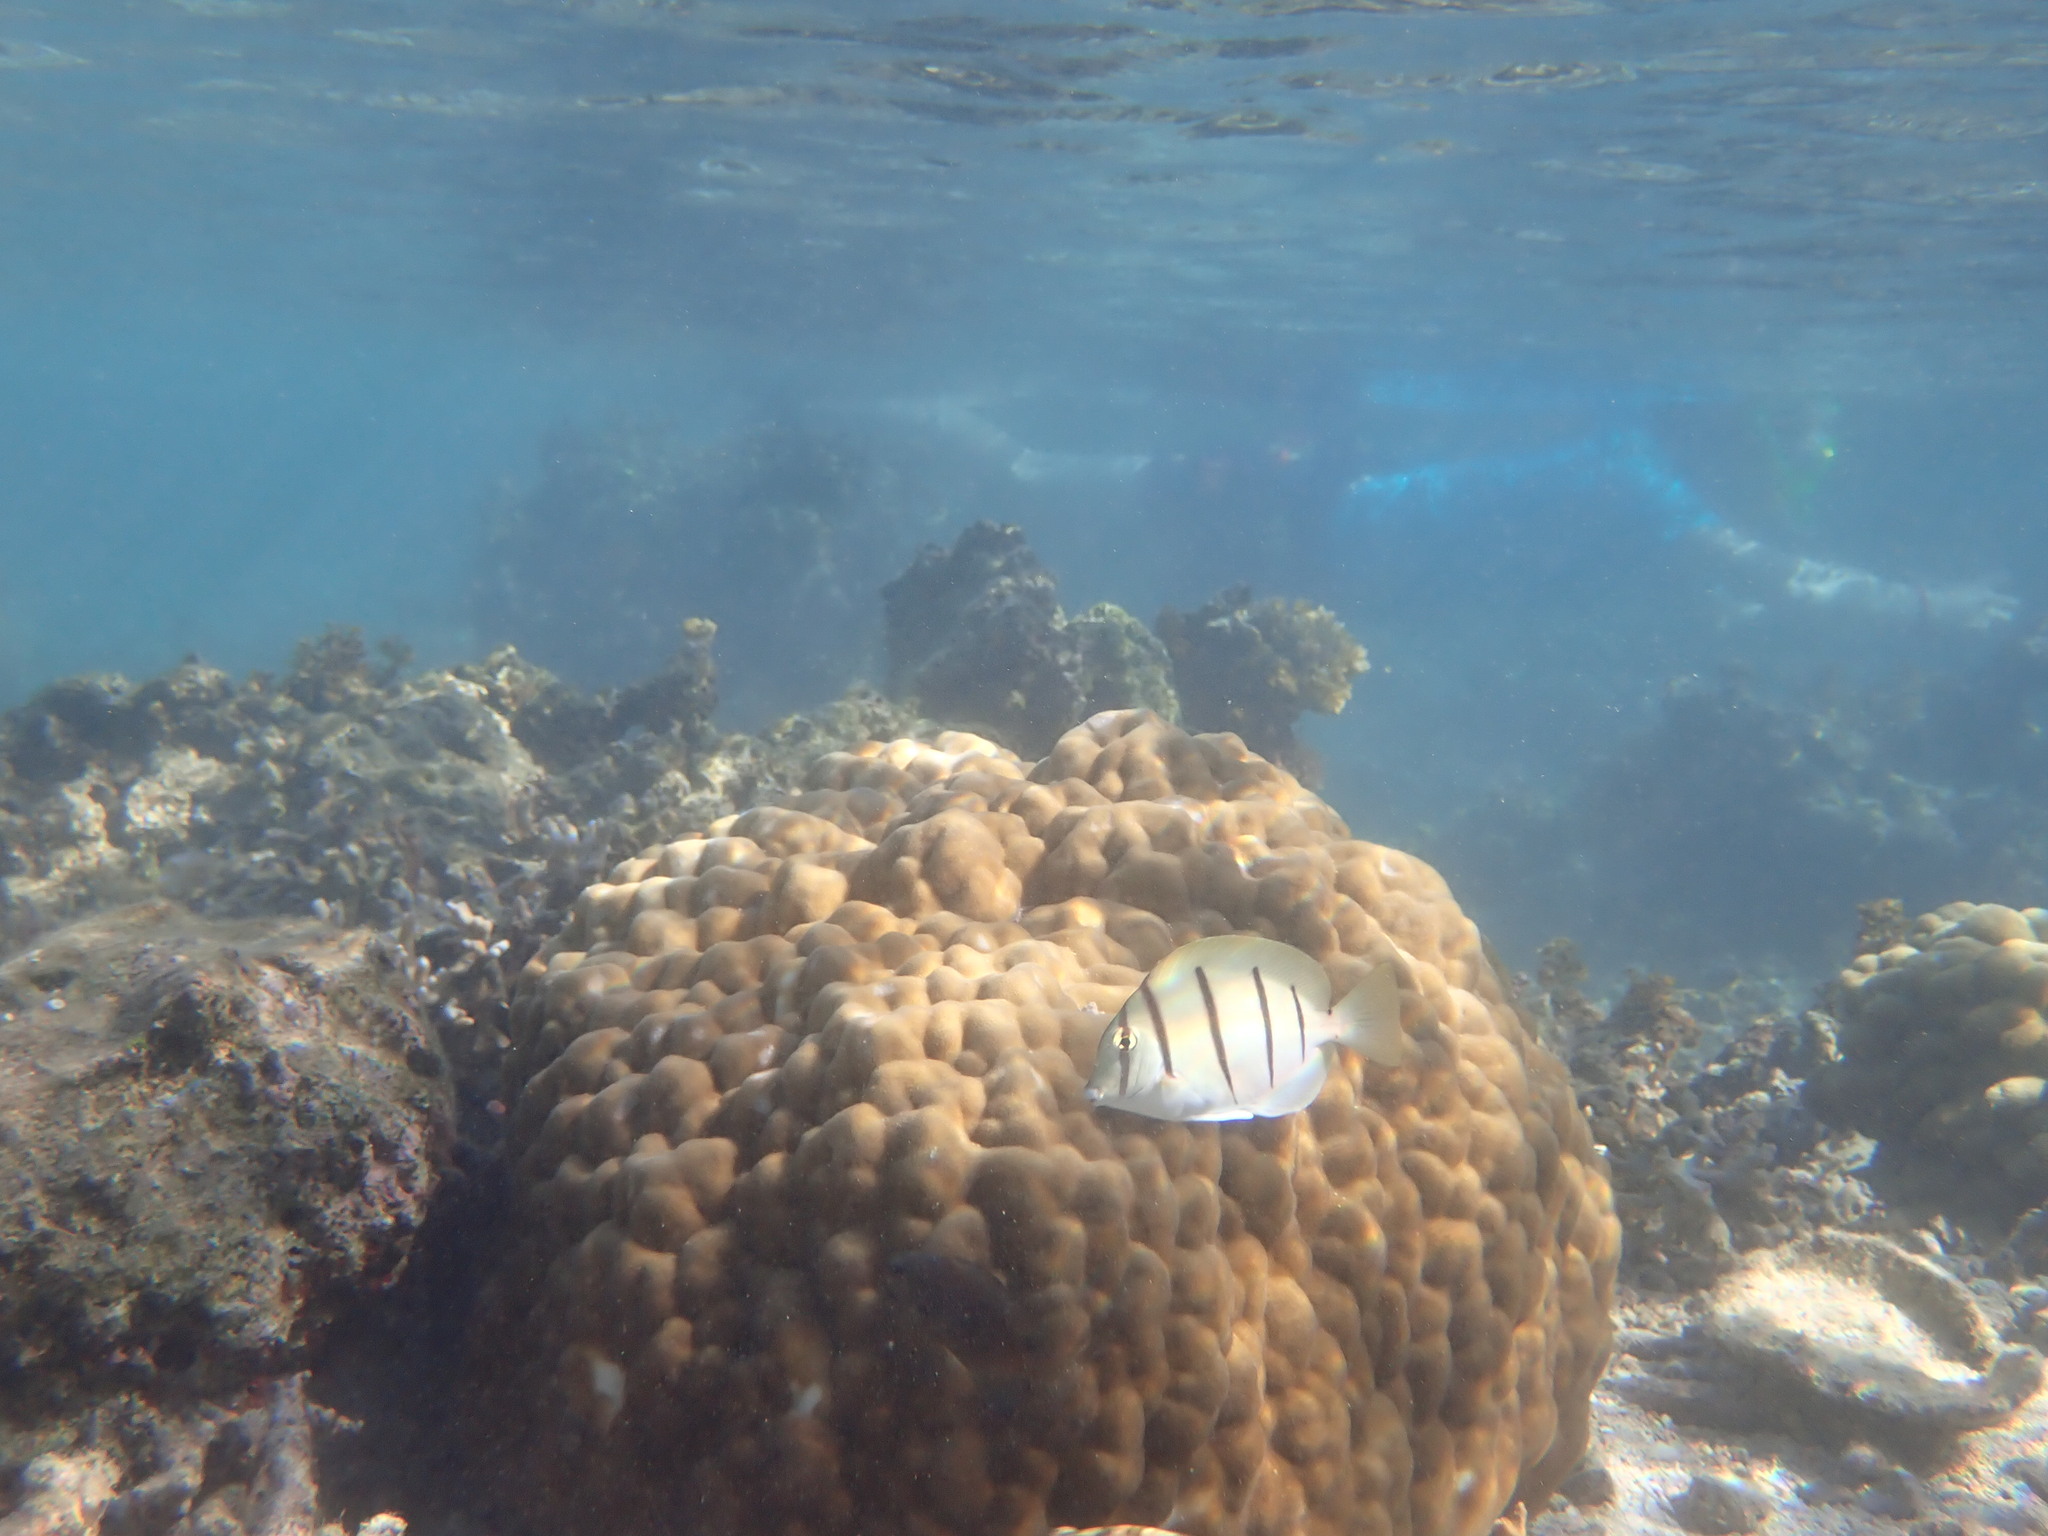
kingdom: Animalia
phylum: Chordata
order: Perciformes
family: Acanthuridae
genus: Acanthurus
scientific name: Acanthurus triostegus
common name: Convict surgeonfish
